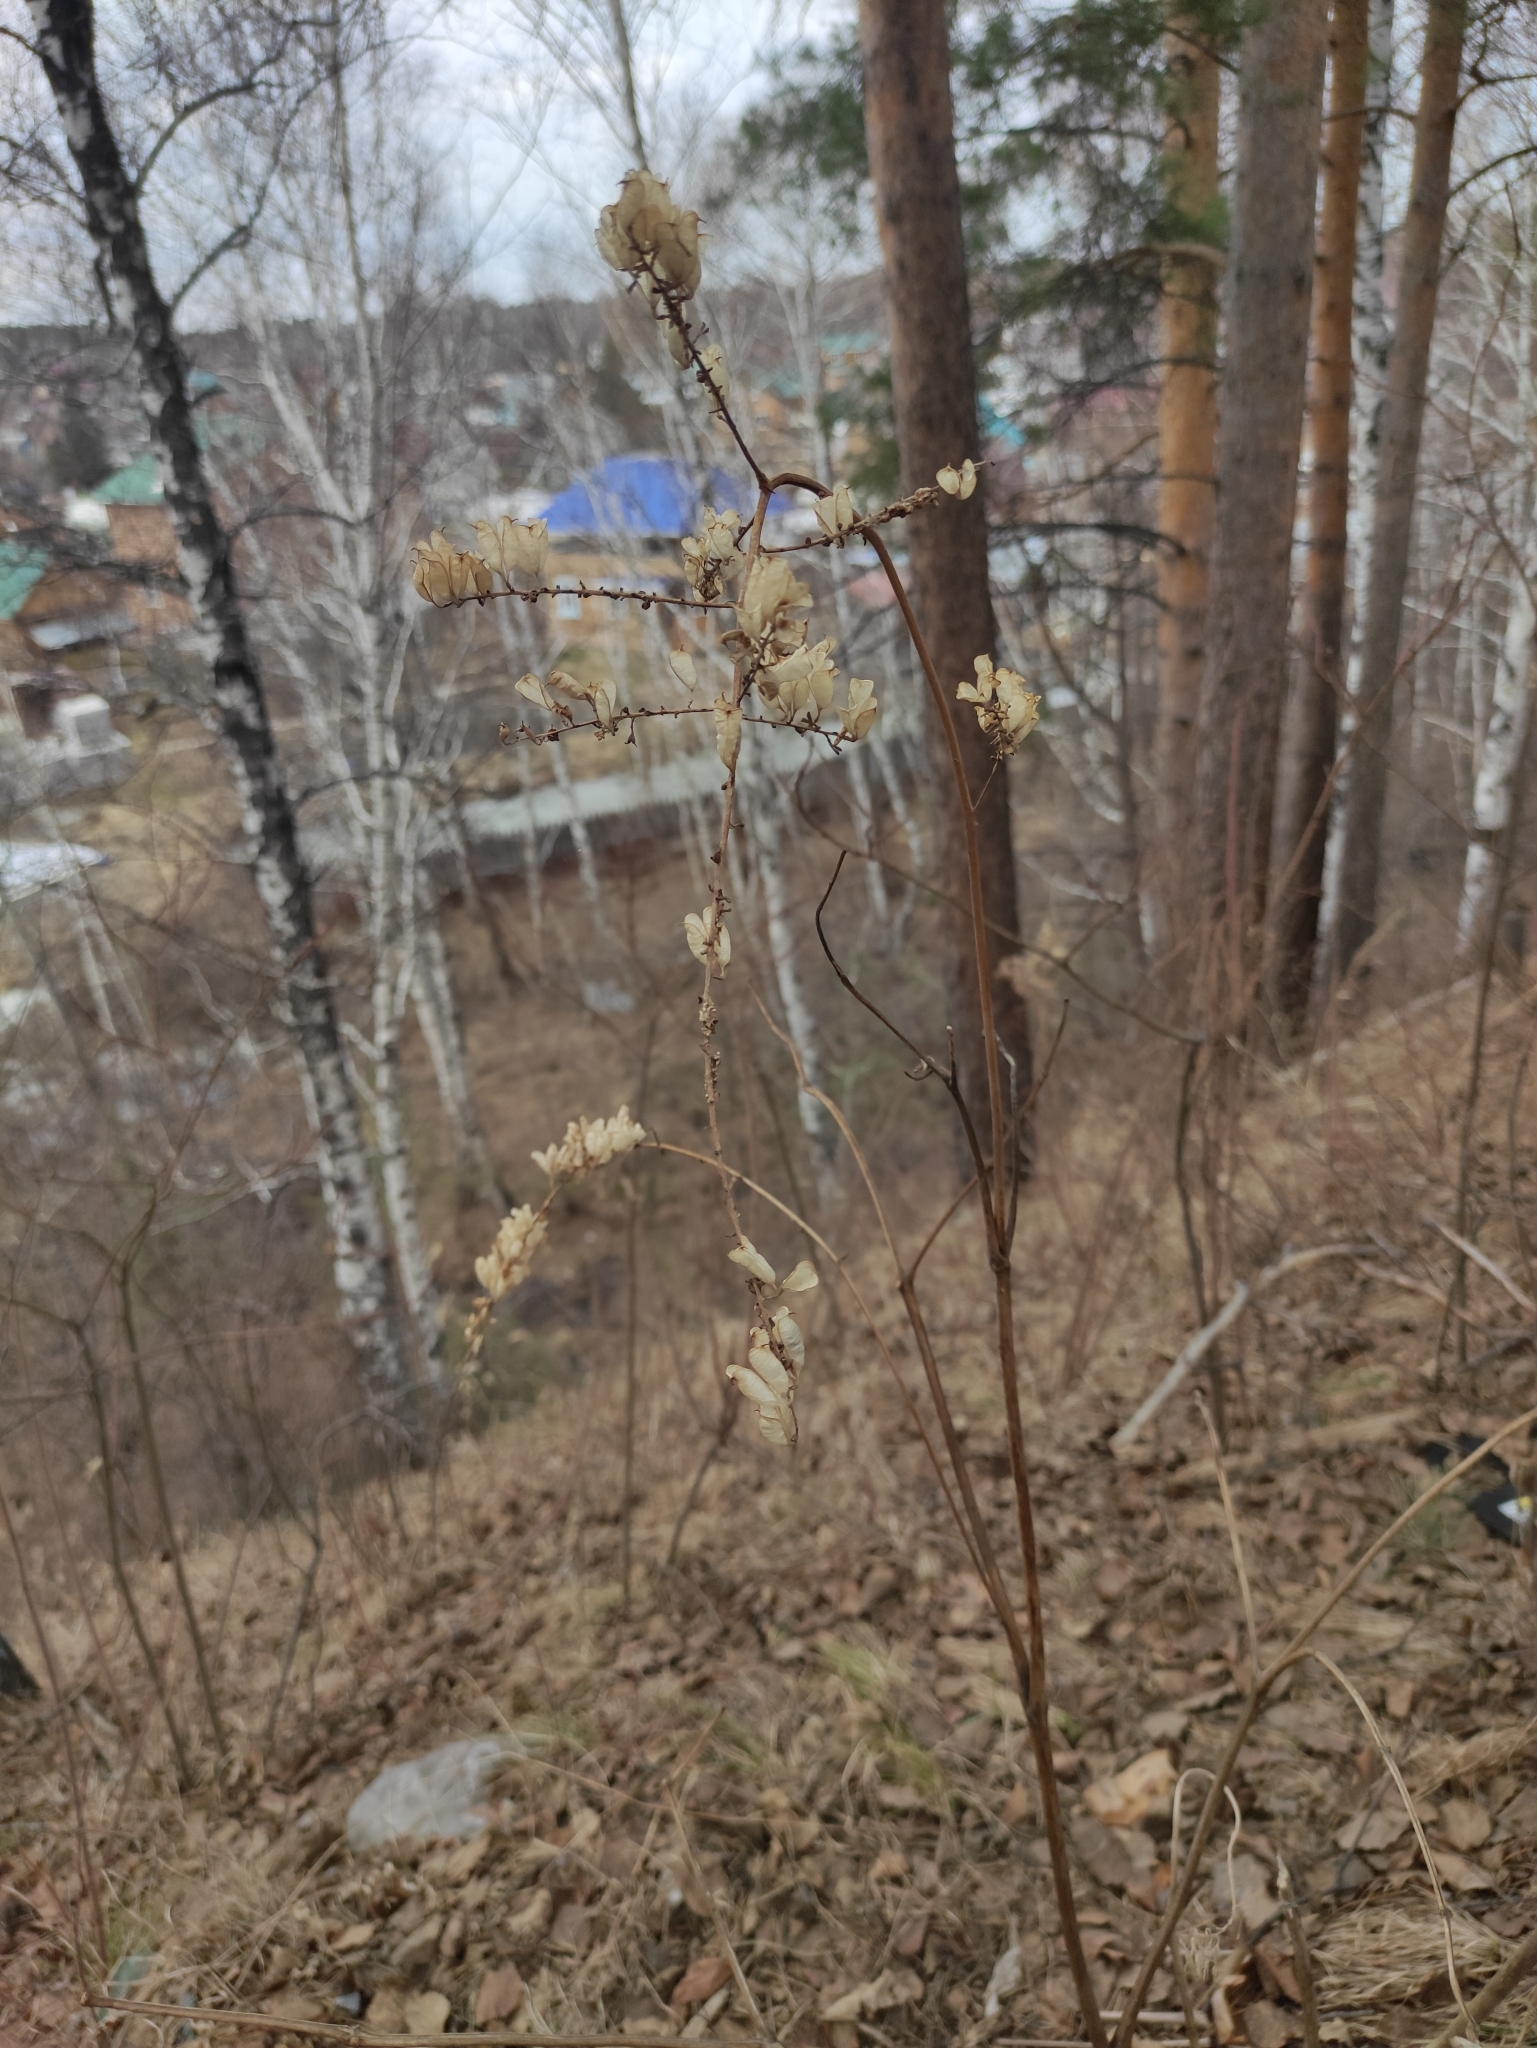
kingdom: Plantae
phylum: Tracheophyta
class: Magnoliopsida
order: Ranunculales
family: Ranunculaceae
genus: Actaea
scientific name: Actaea cimicifuga
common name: Chinese cimicifuga
